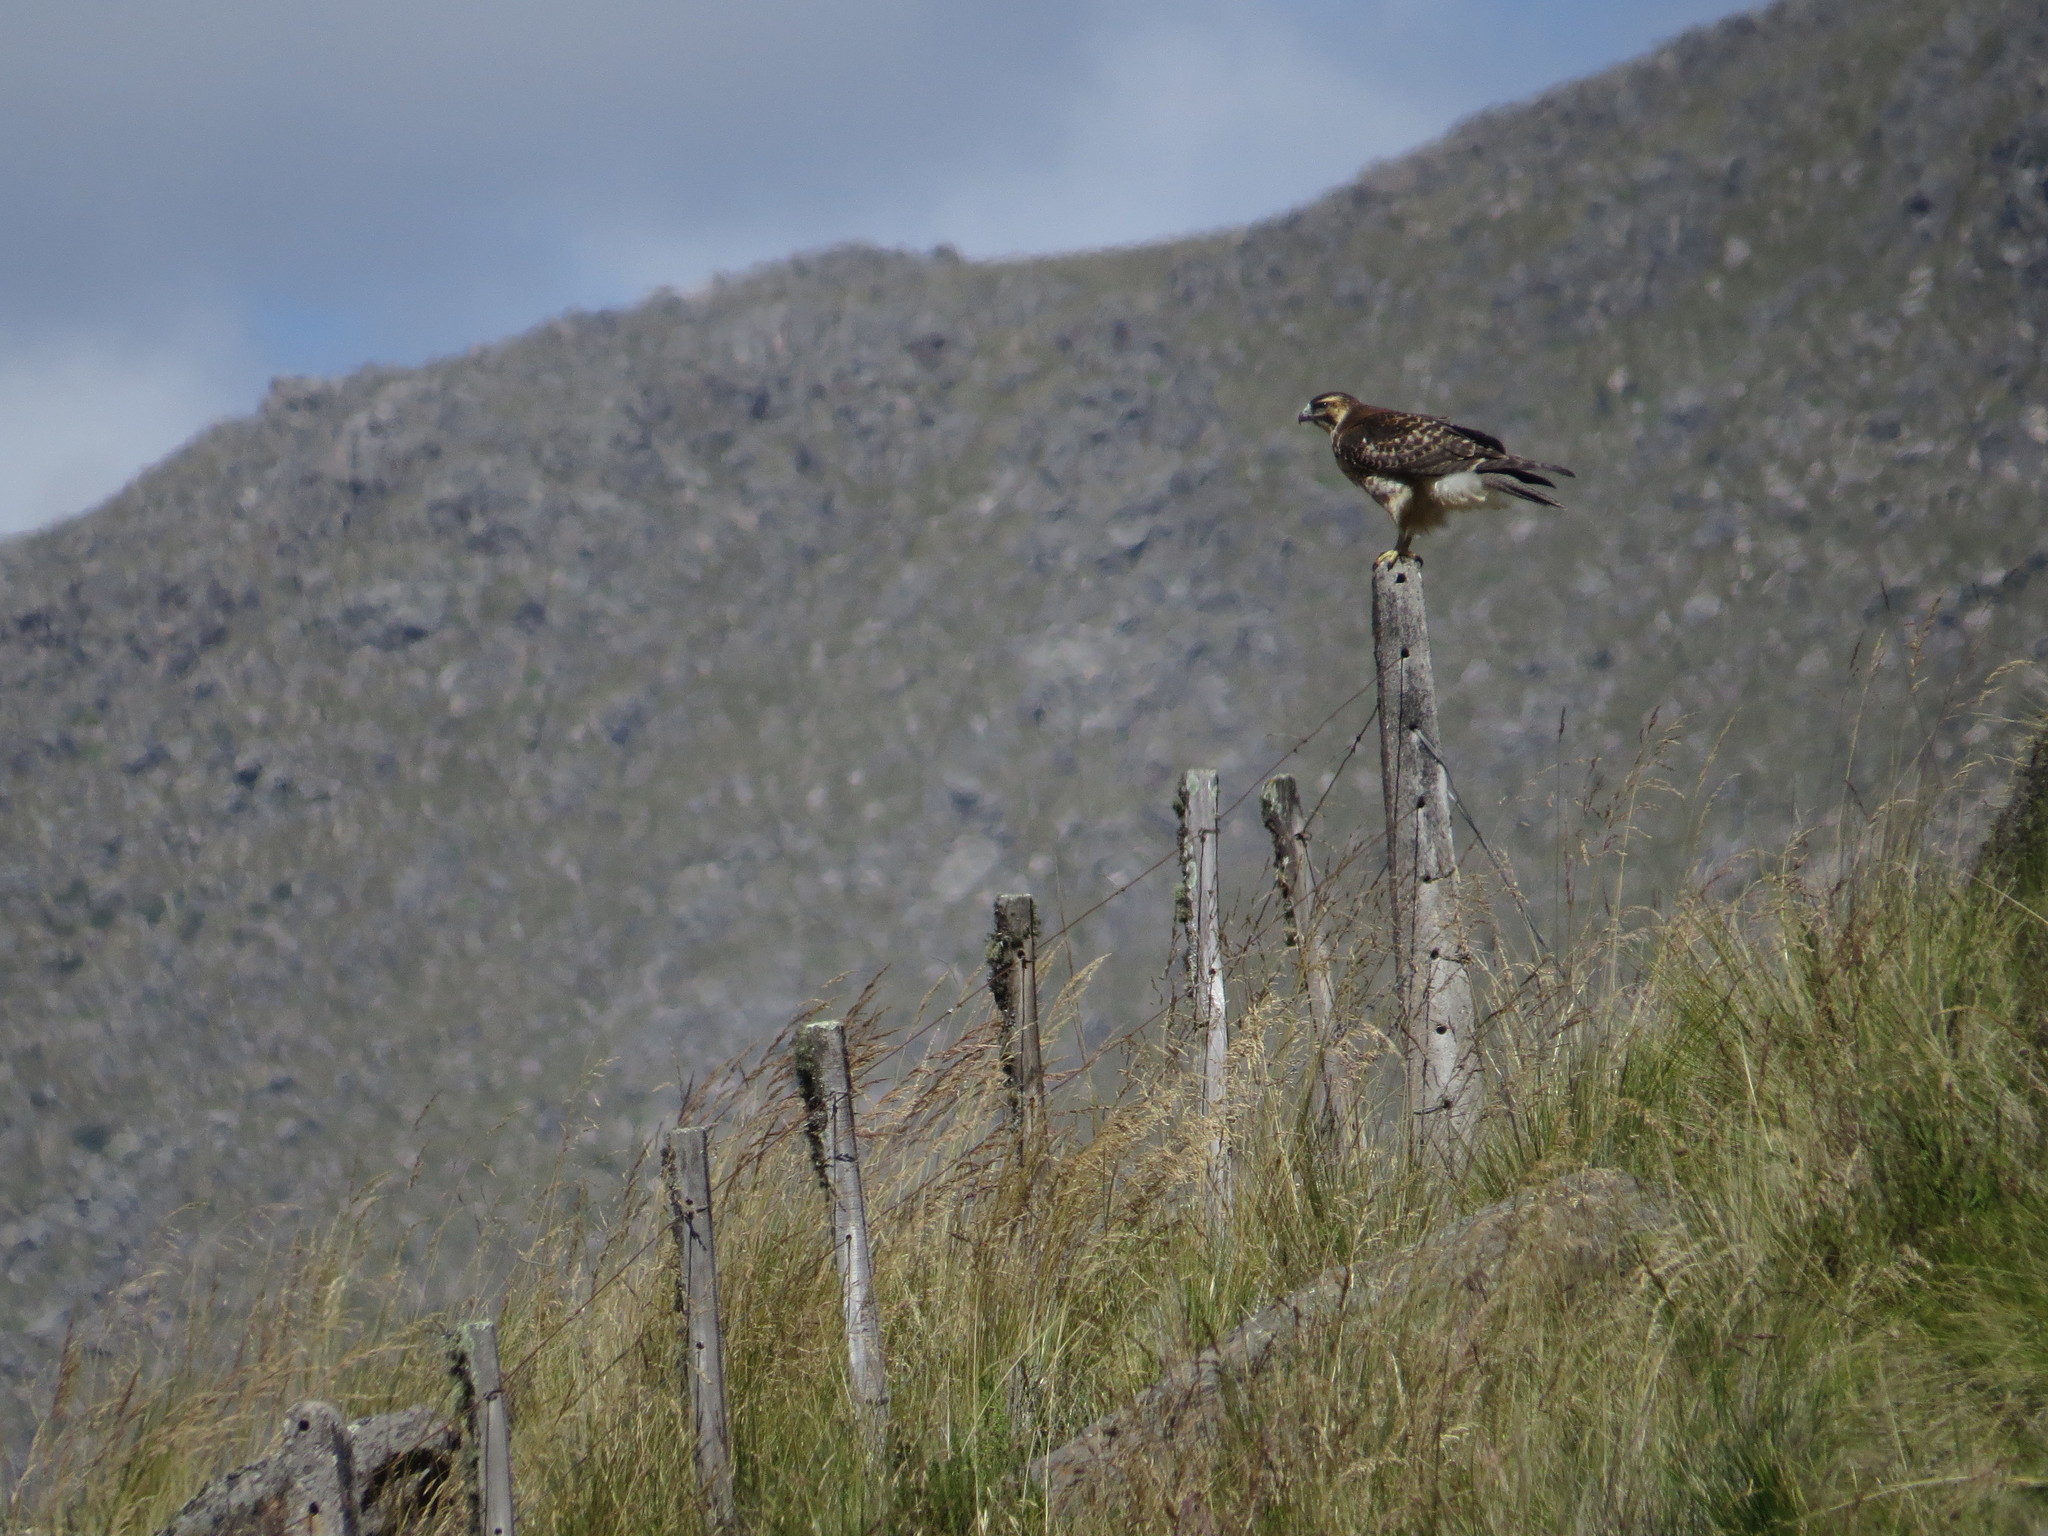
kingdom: Animalia
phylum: Chordata
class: Aves
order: Accipitriformes
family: Accipitridae
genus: Buteo
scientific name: Buteo polyosoma
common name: Variable hawk
